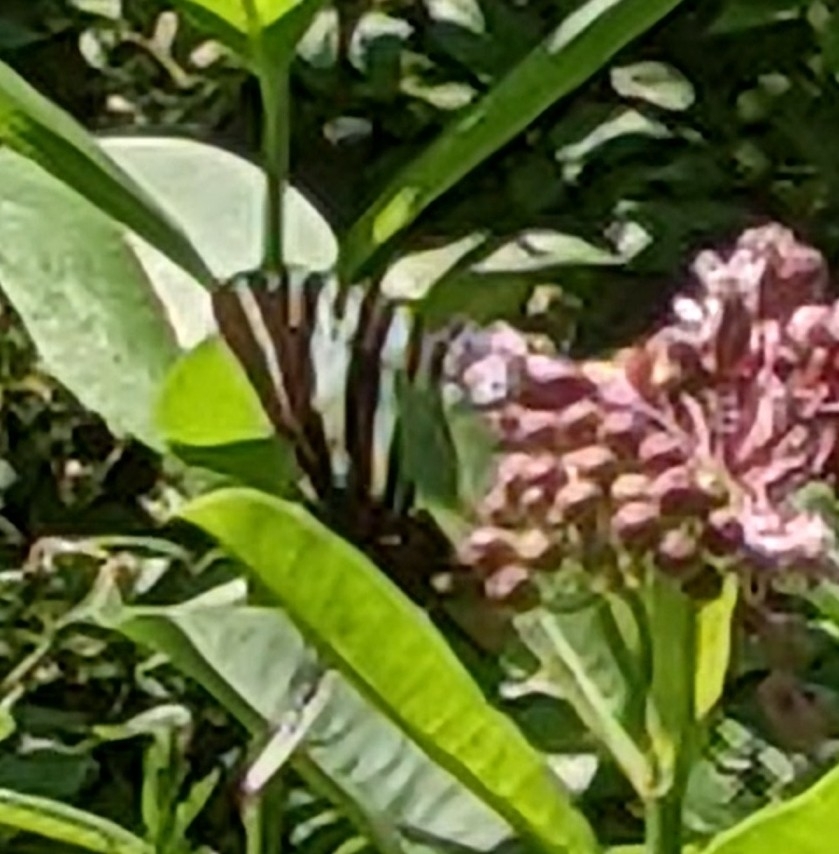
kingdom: Animalia
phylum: Arthropoda
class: Insecta
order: Lepidoptera
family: Papilionidae
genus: Protographium
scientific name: Protographium marcellus
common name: Zebra swallowtail
